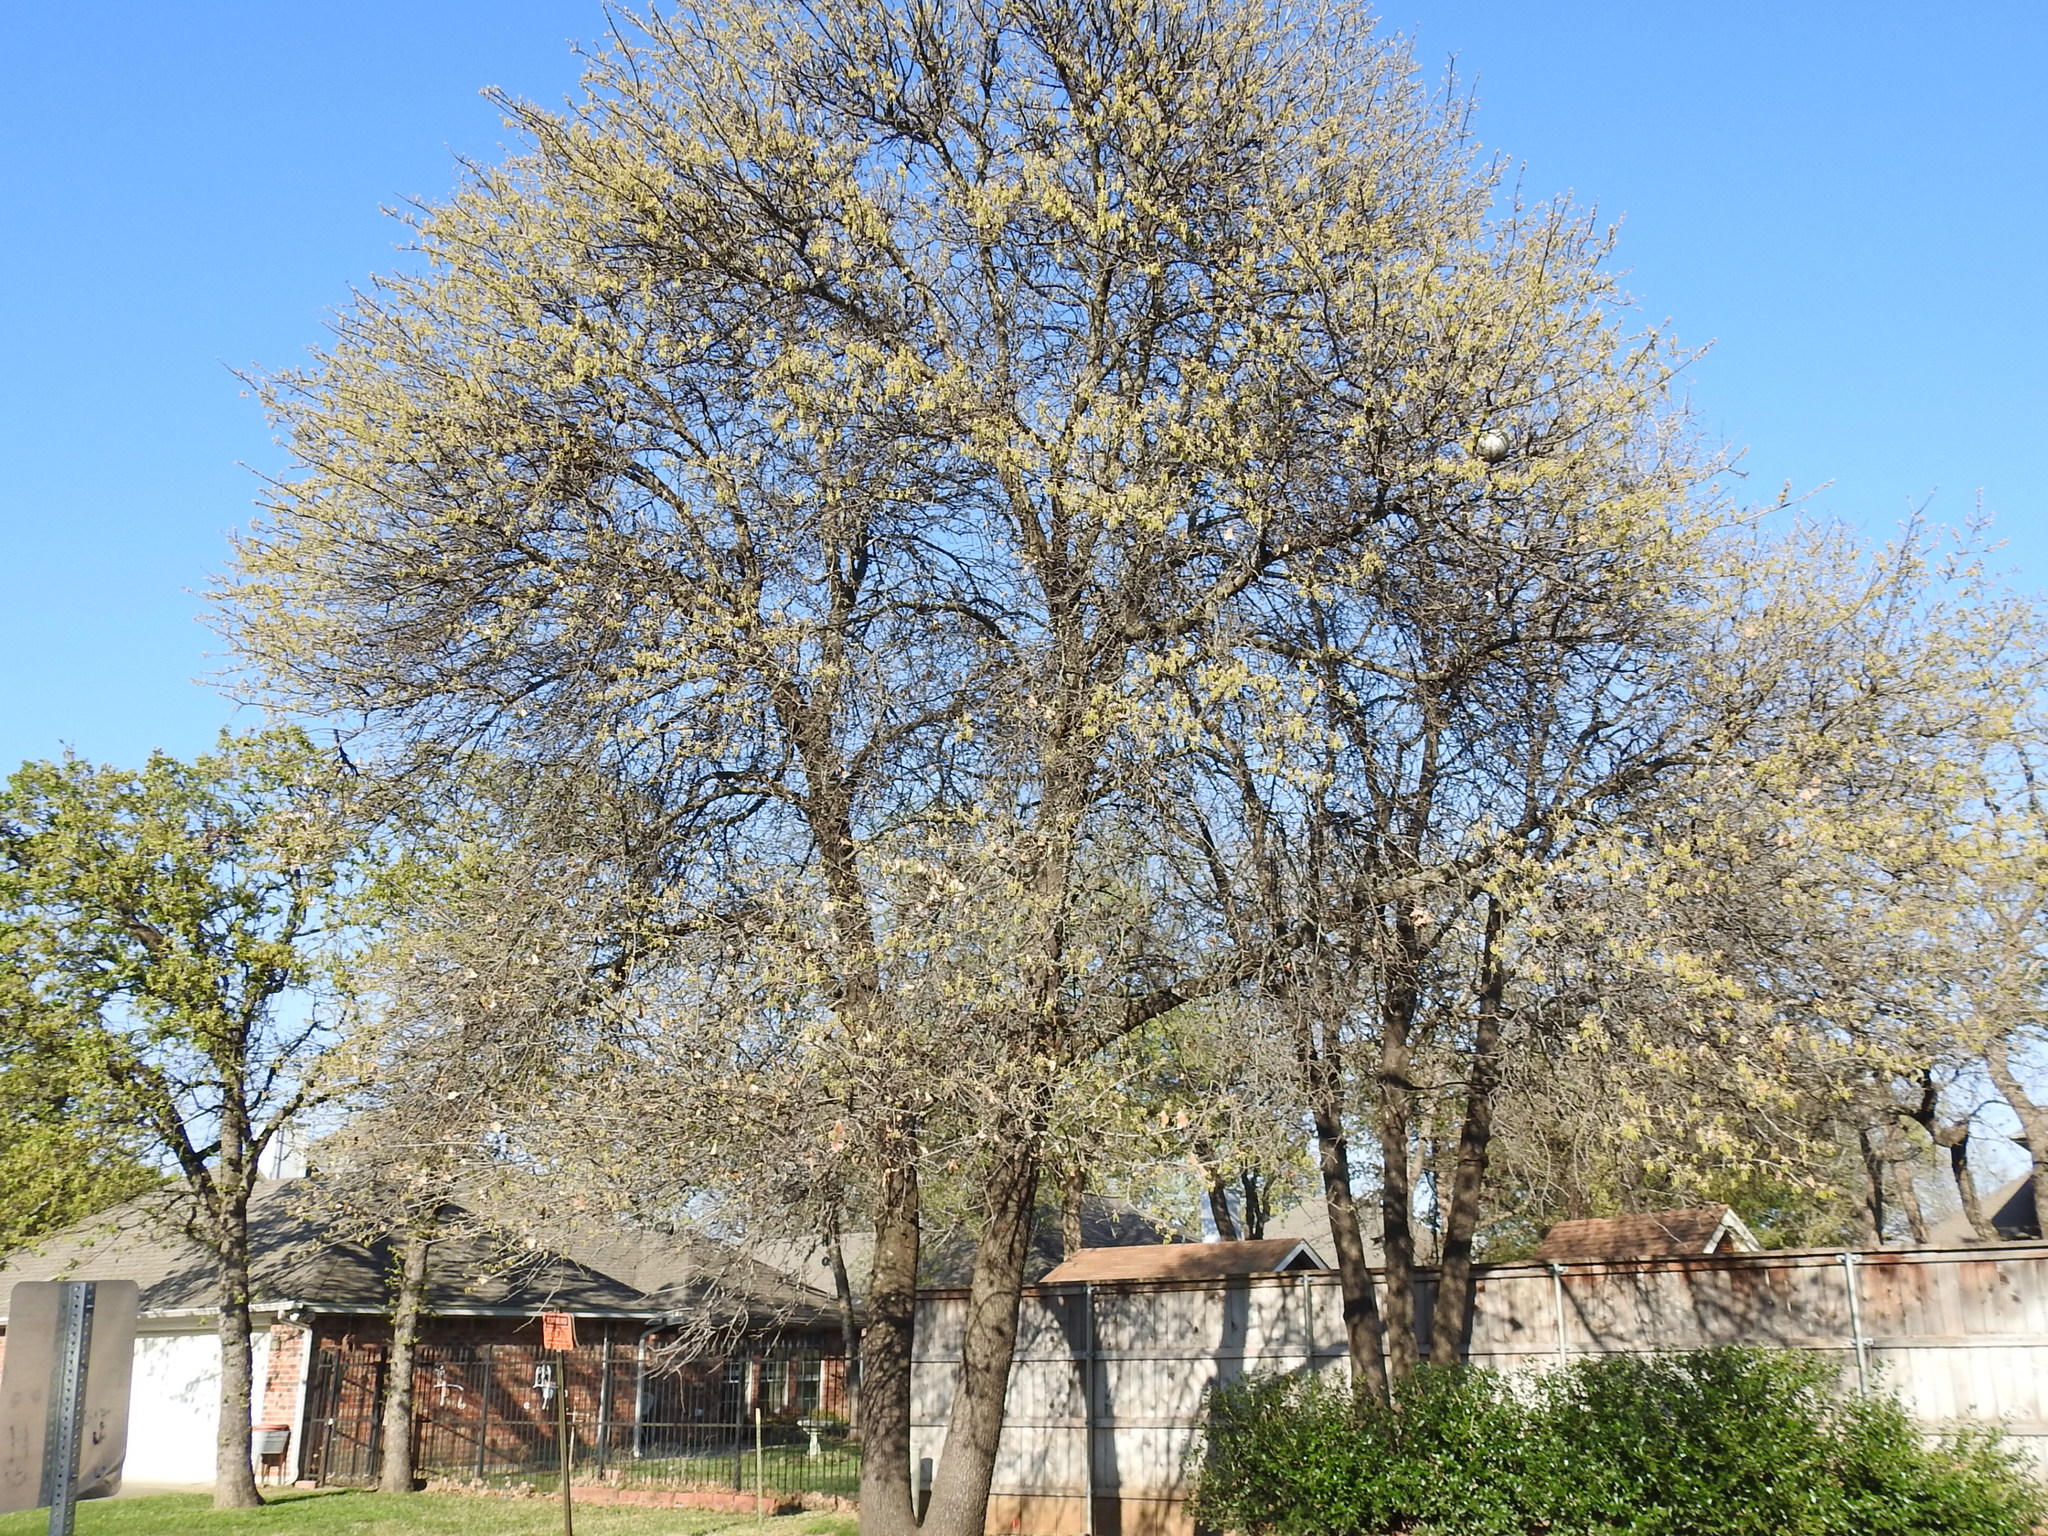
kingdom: Plantae
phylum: Tracheophyta
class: Magnoliopsida
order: Fagales
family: Fagaceae
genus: Quercus
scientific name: Quercus marilandica
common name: Blackjack oak
